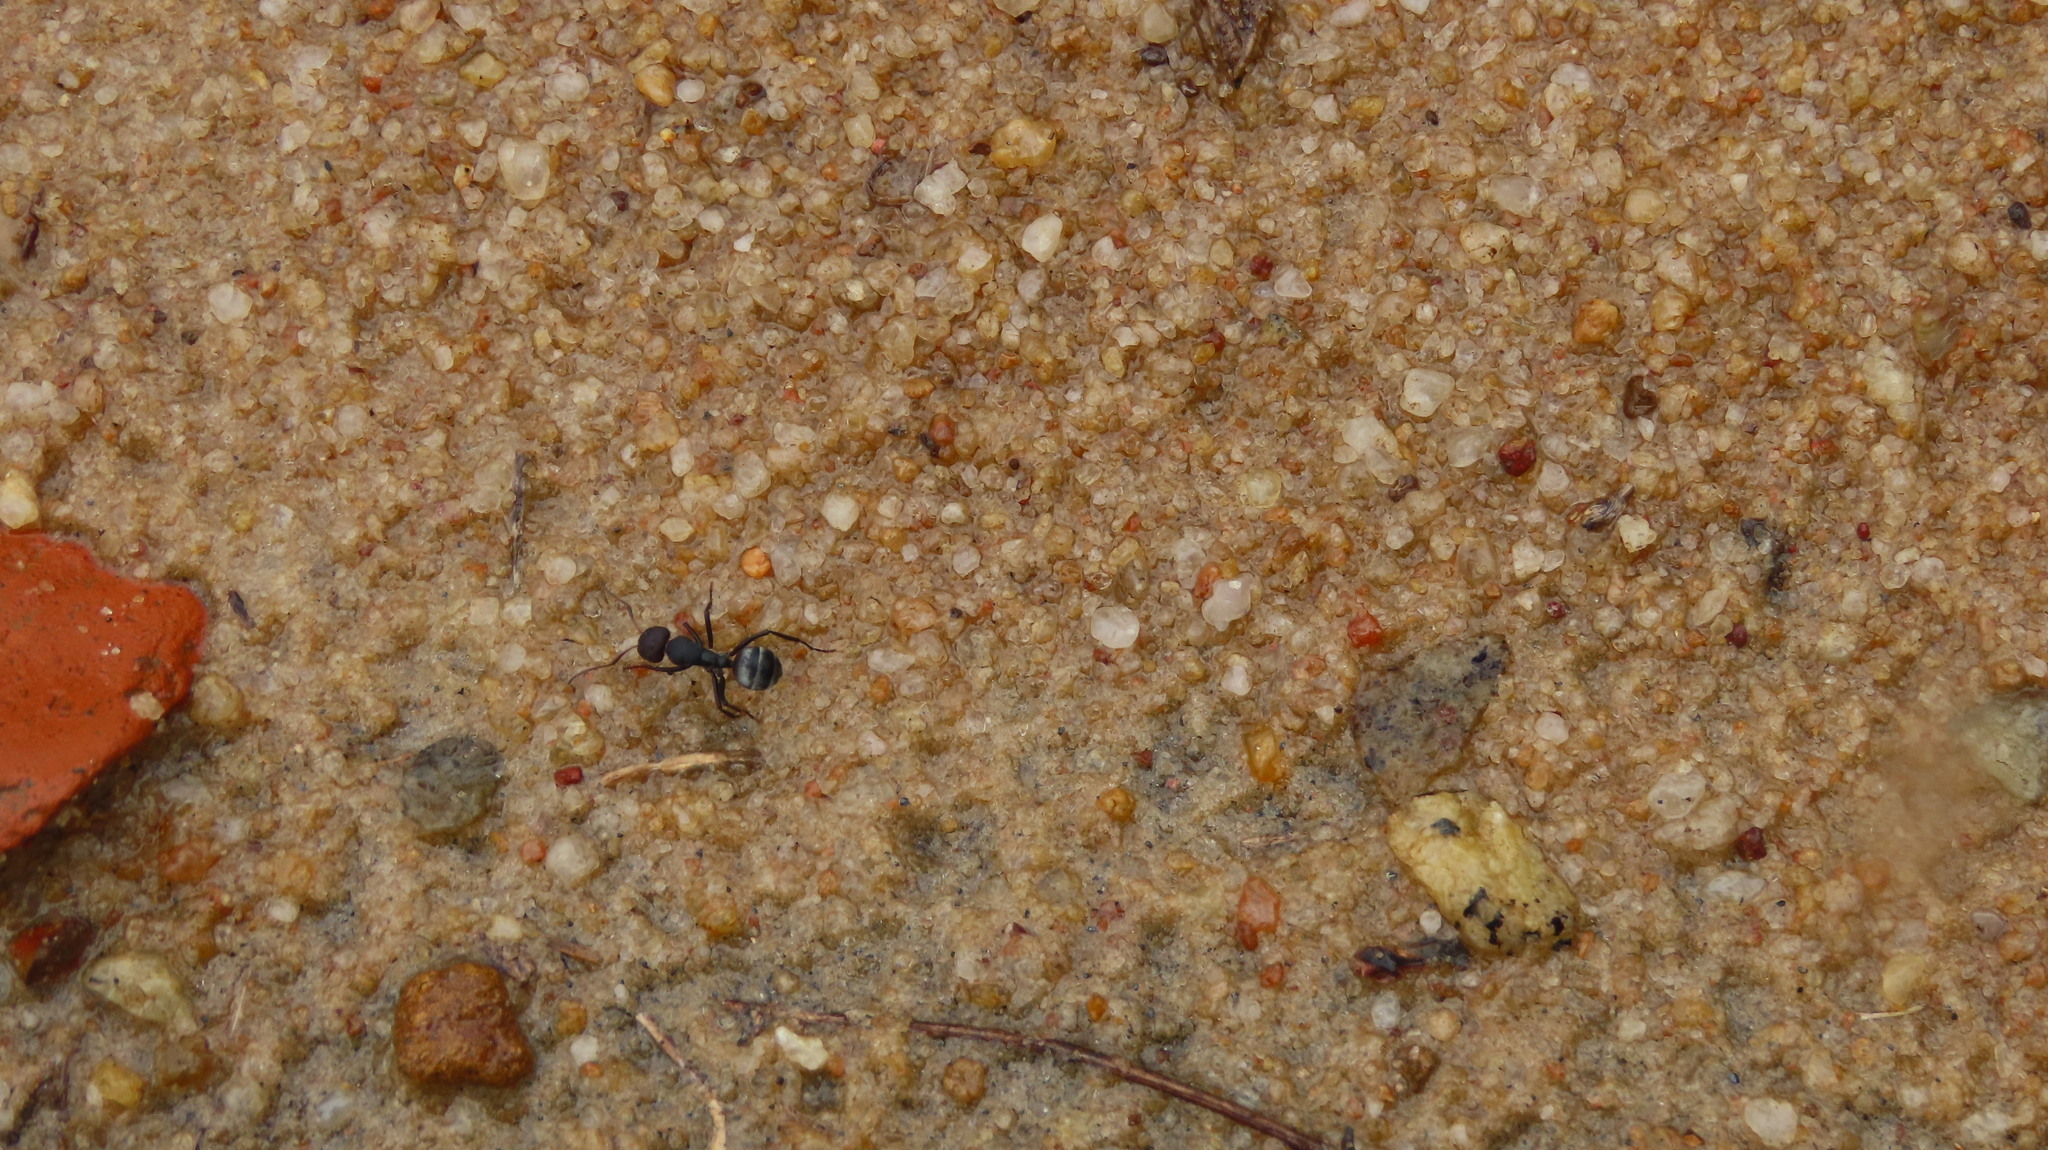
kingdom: Animalia
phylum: Arthropoda
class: Insecta
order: Hymenoptera
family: Formicidae
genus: Camponotus
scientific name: Camponotus sericeus
